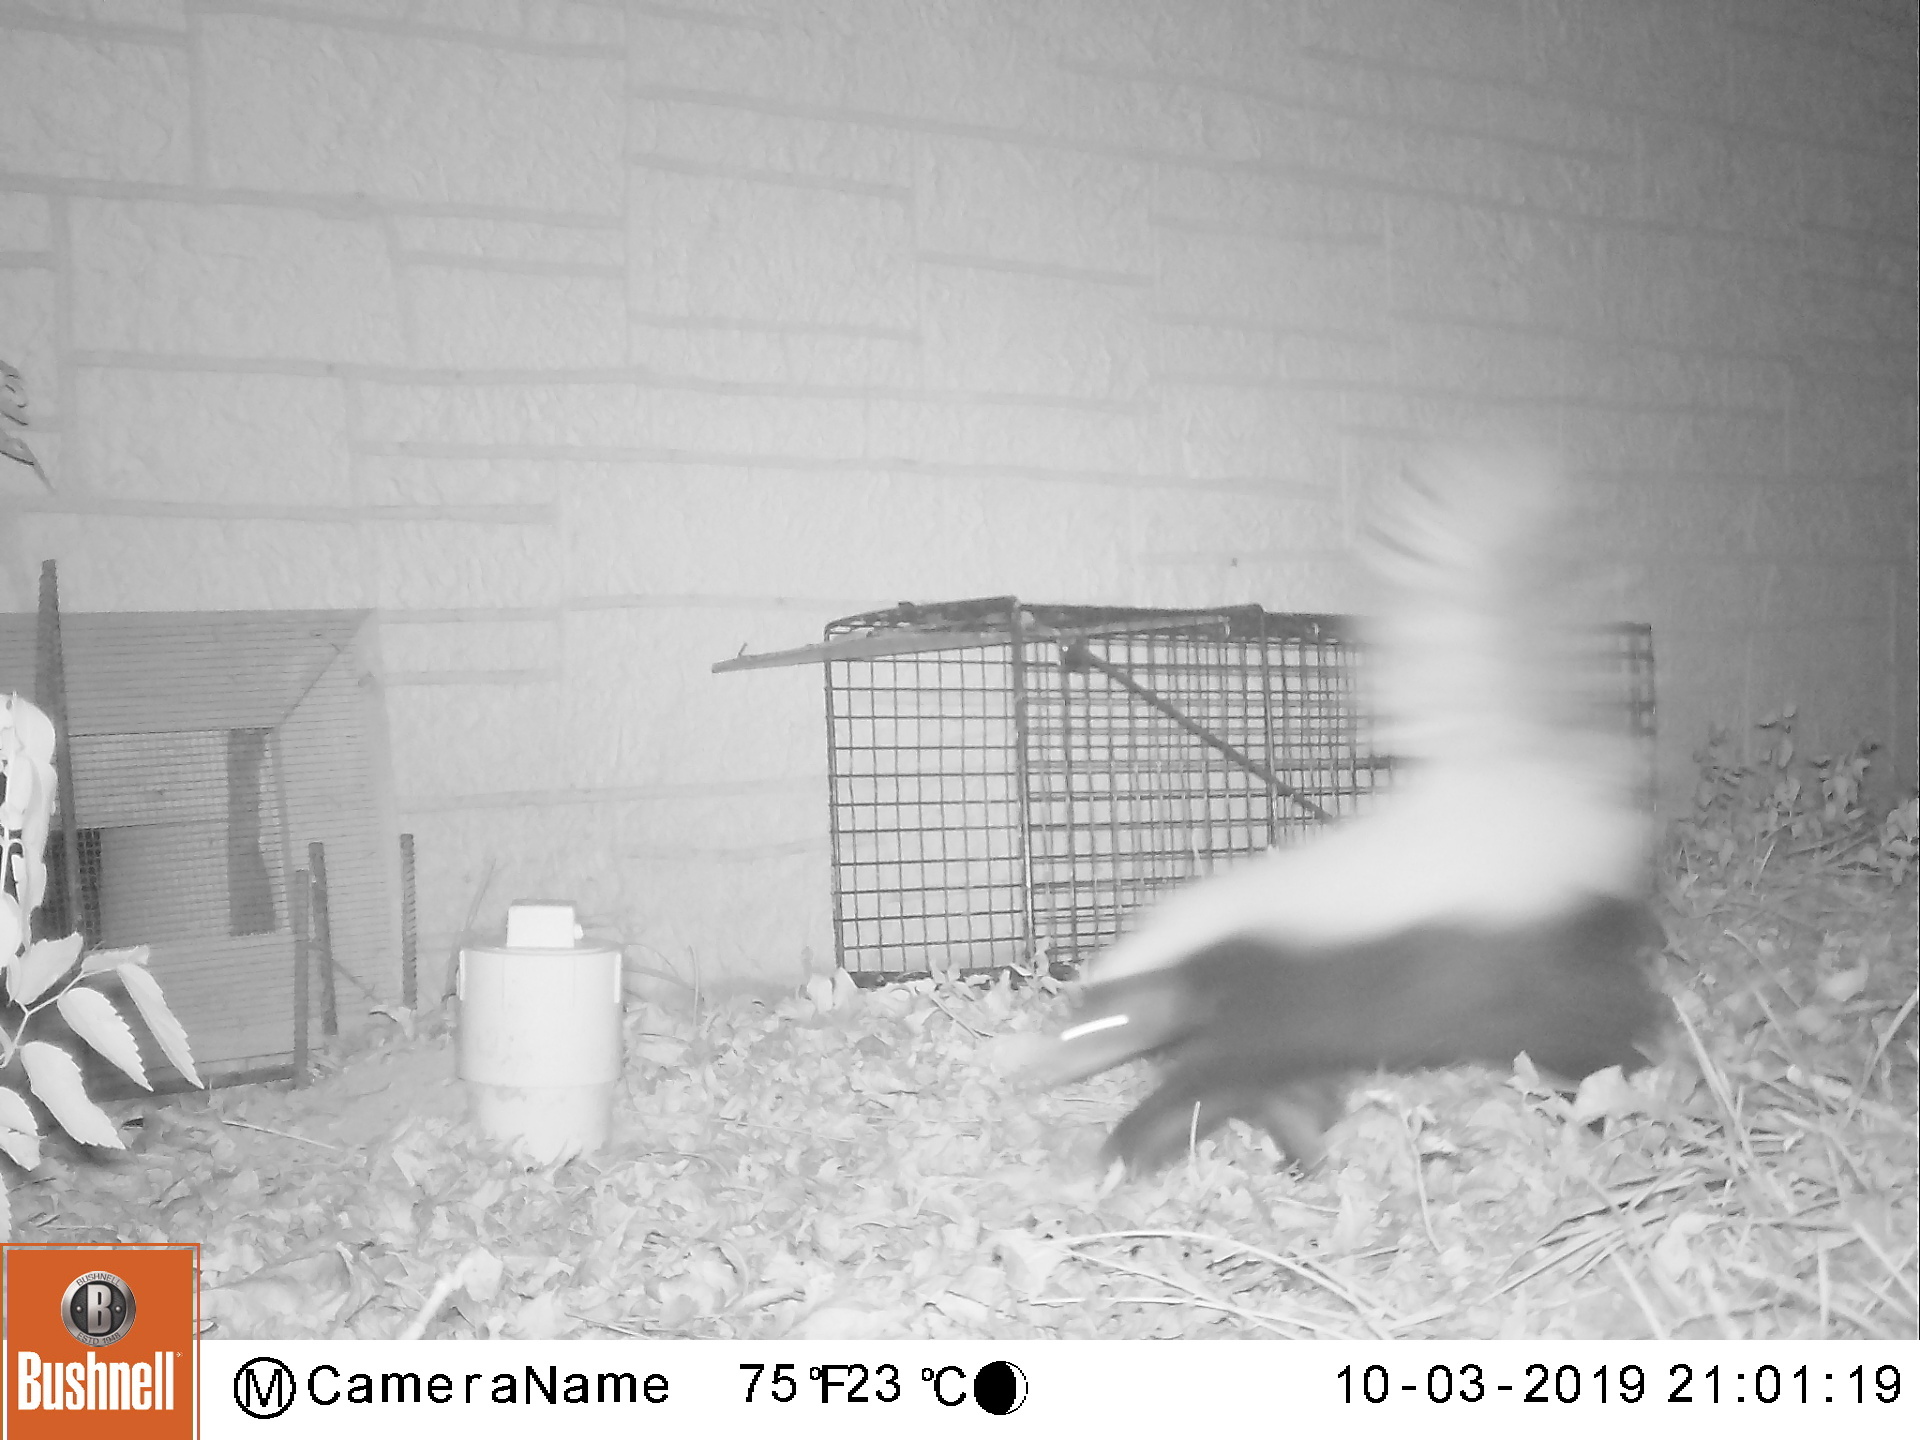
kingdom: Animalia
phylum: Chordata
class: Mammalia
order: Carnivora
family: Mephitidae
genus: Conepatus
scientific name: Conepatus leuconotus
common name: Eastern hog-nosed skunk
